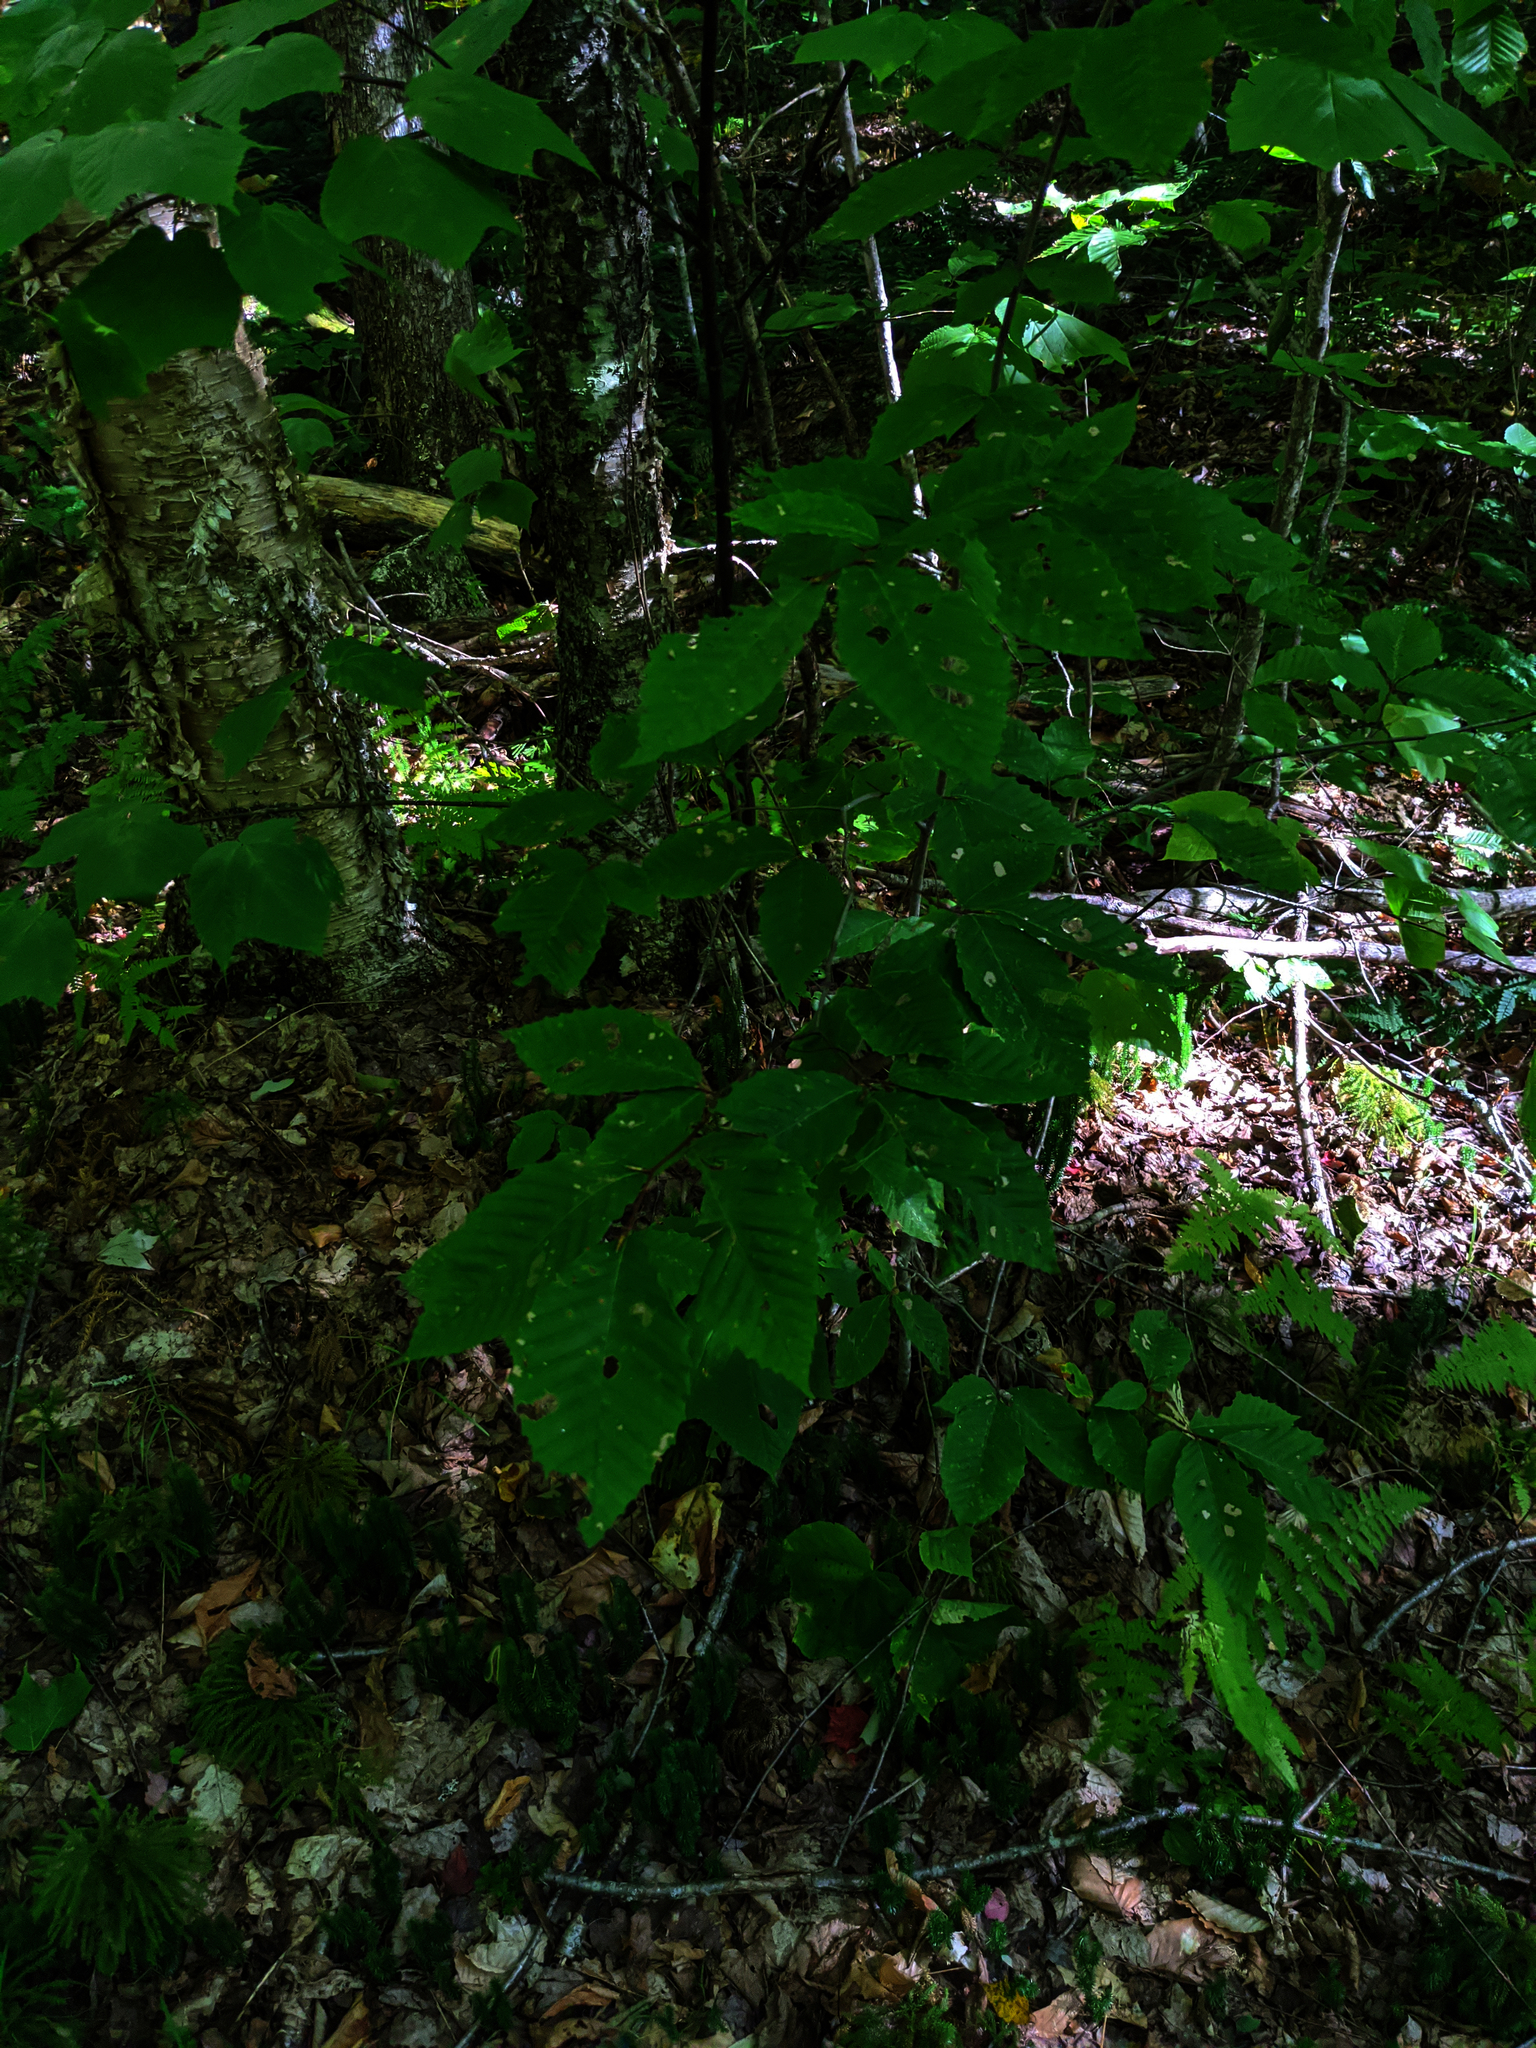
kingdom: Plantae
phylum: Tracheophyta
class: Magnoliopsida
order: Fagales
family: Fagaceae
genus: Fagus
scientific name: Fagus grandifolia
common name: American beech
